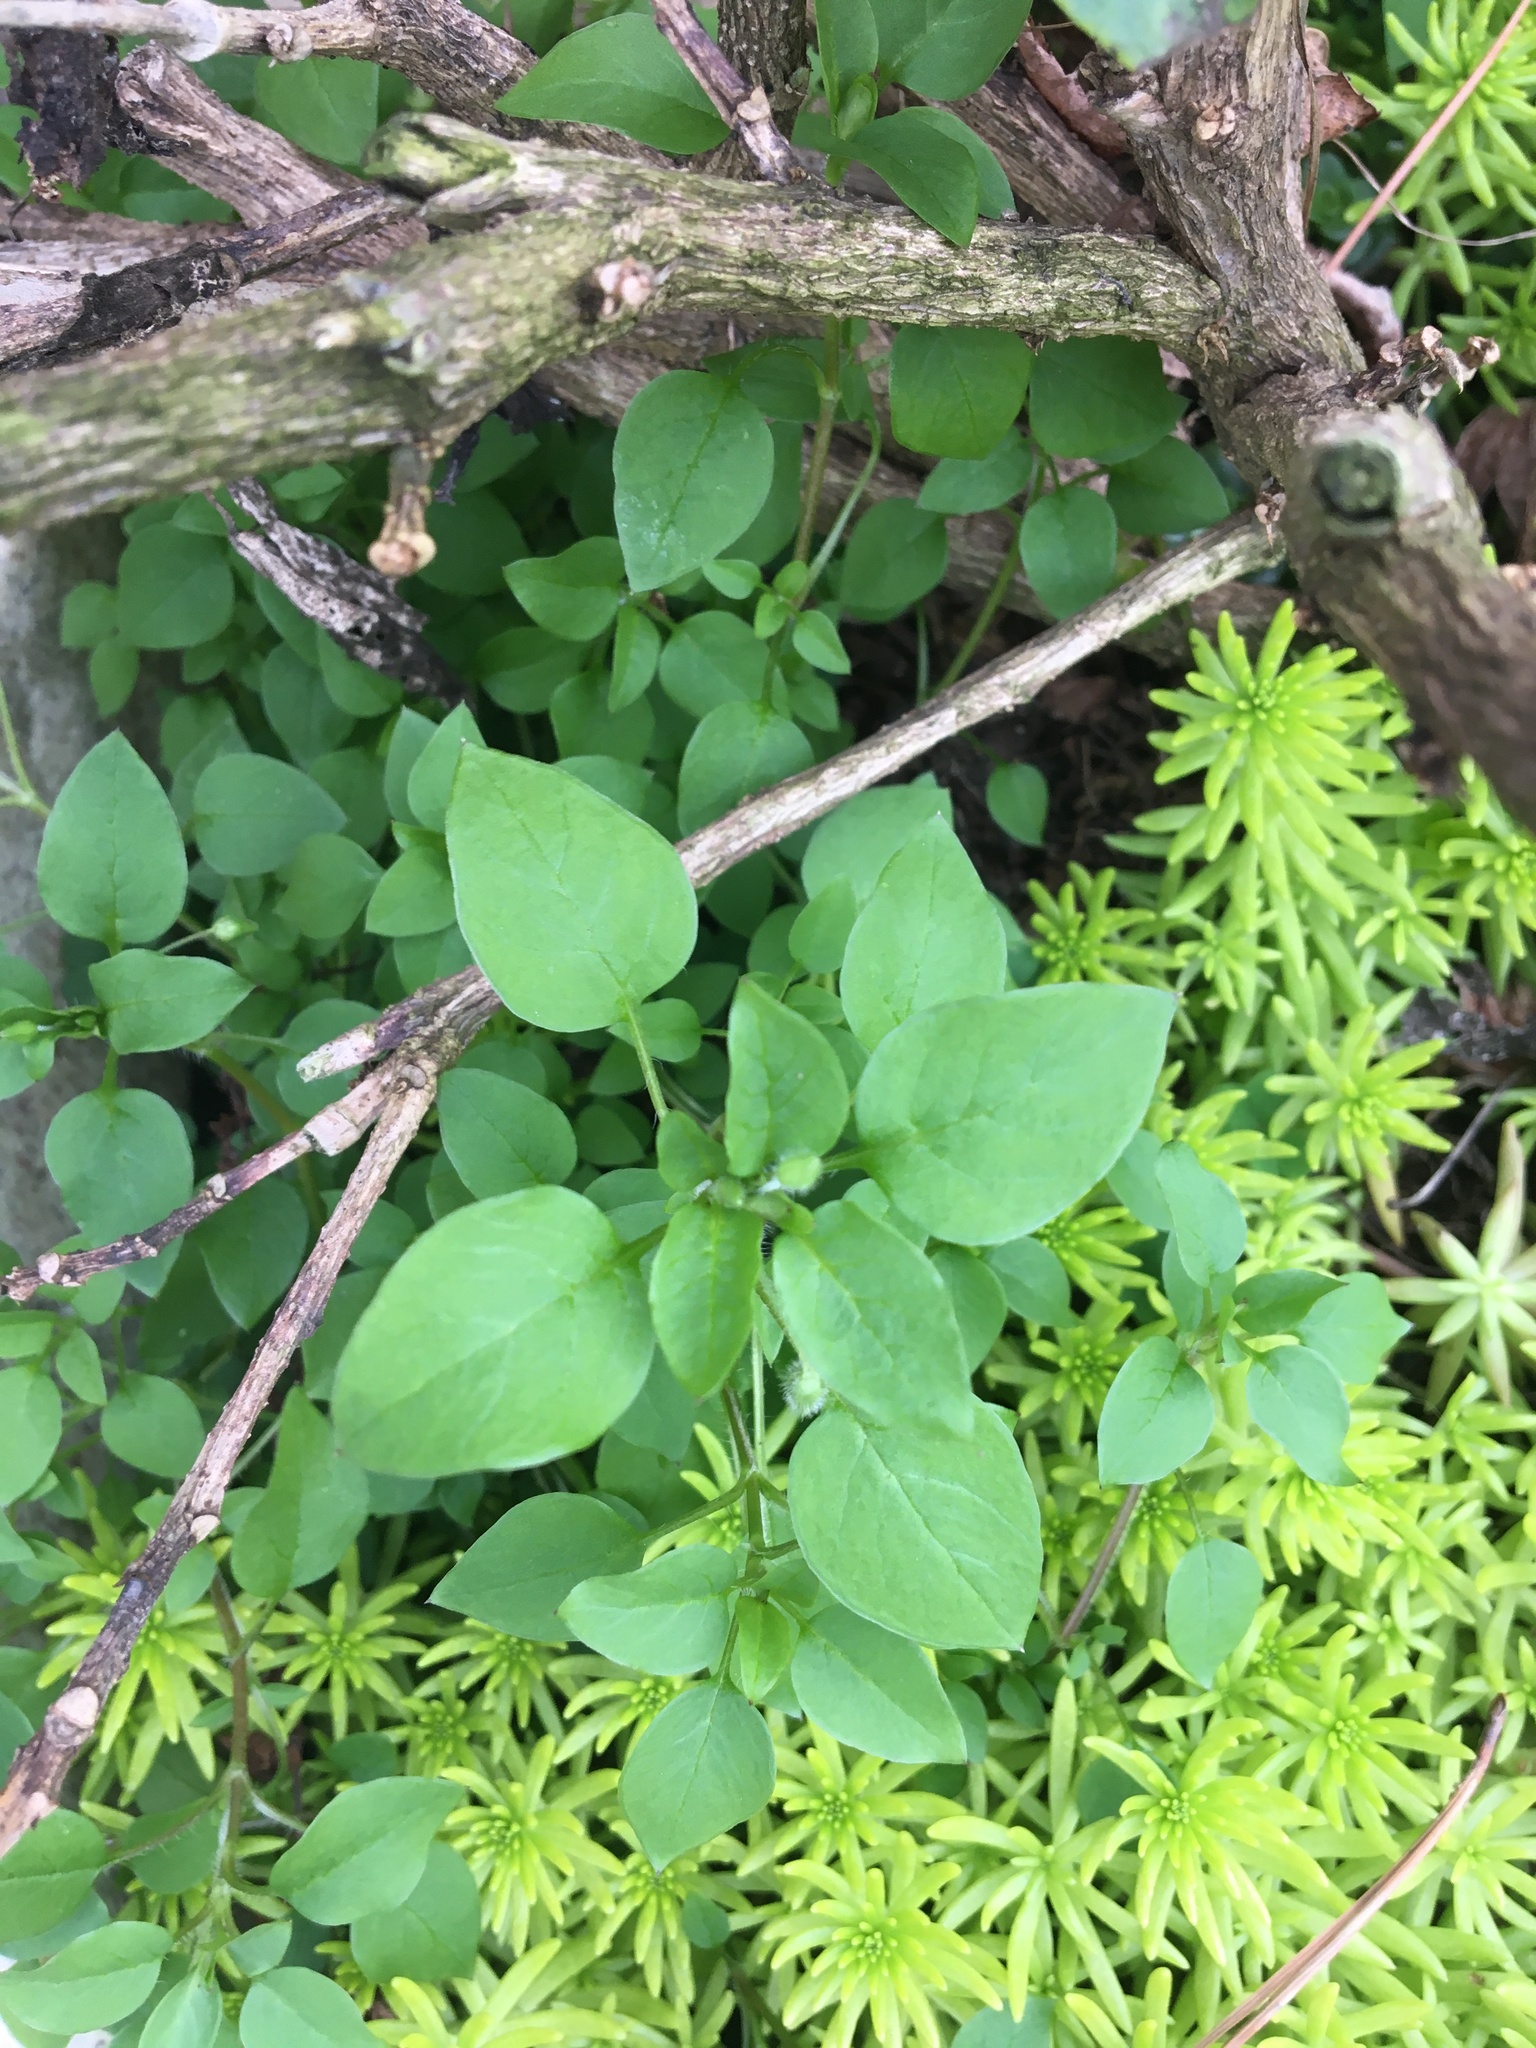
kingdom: Plantae
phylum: Tracheophyta
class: Magnoliopsida
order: Caryophyllales
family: Caryophyllaceae
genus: Stellaria
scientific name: Stellaria media
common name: Common chickweed
